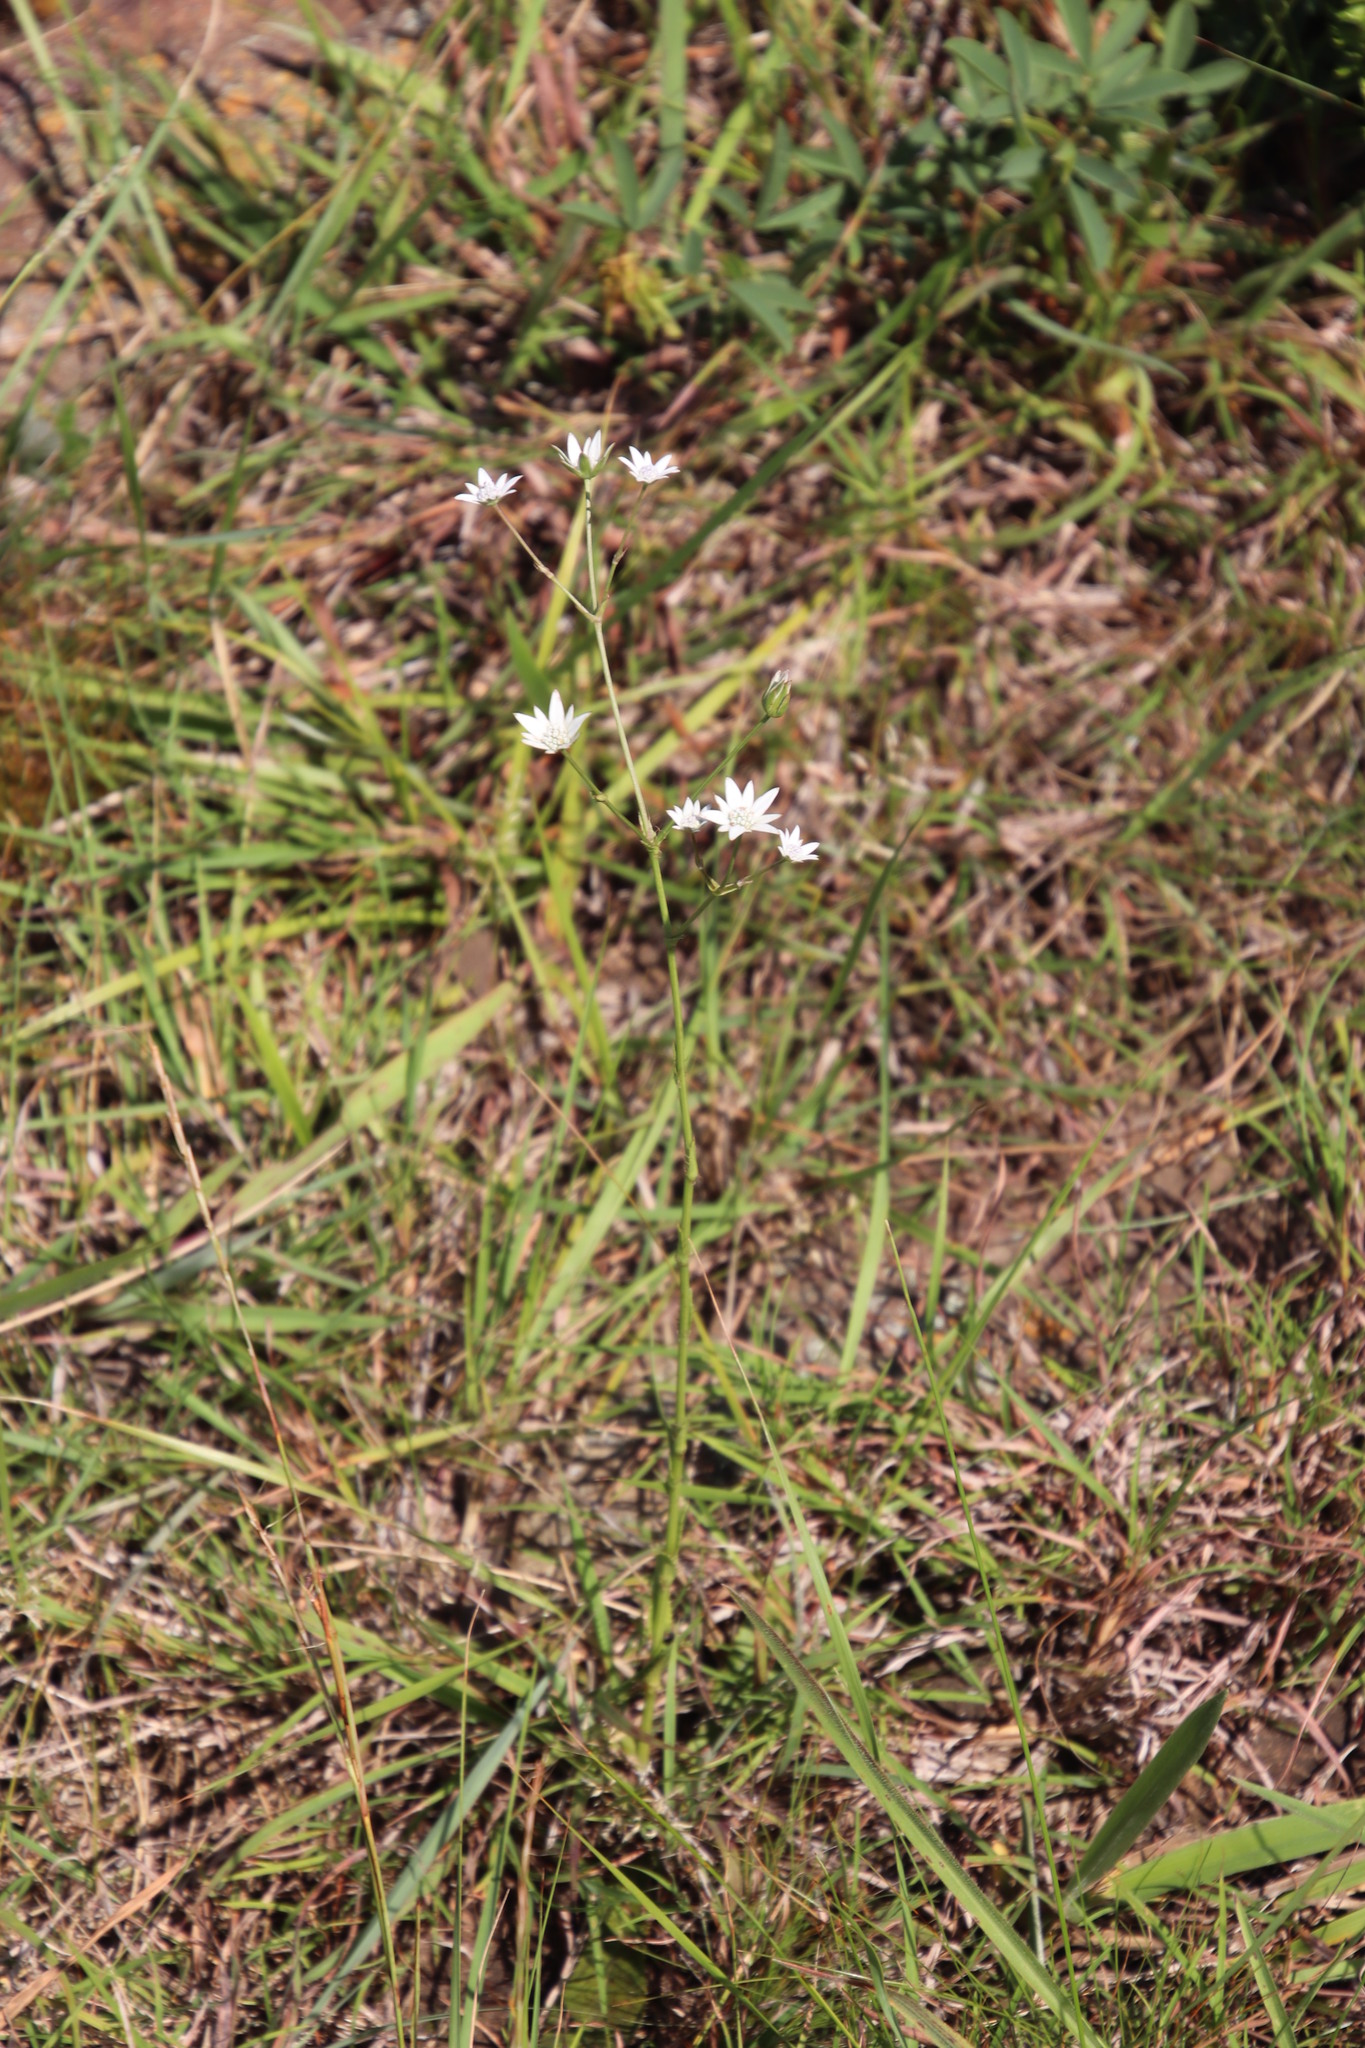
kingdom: Plantae
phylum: Tracheophyta
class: Magnoliopsida
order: Apiales
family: Apiaceae
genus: Alepidea
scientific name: Alepidea peduncularis
